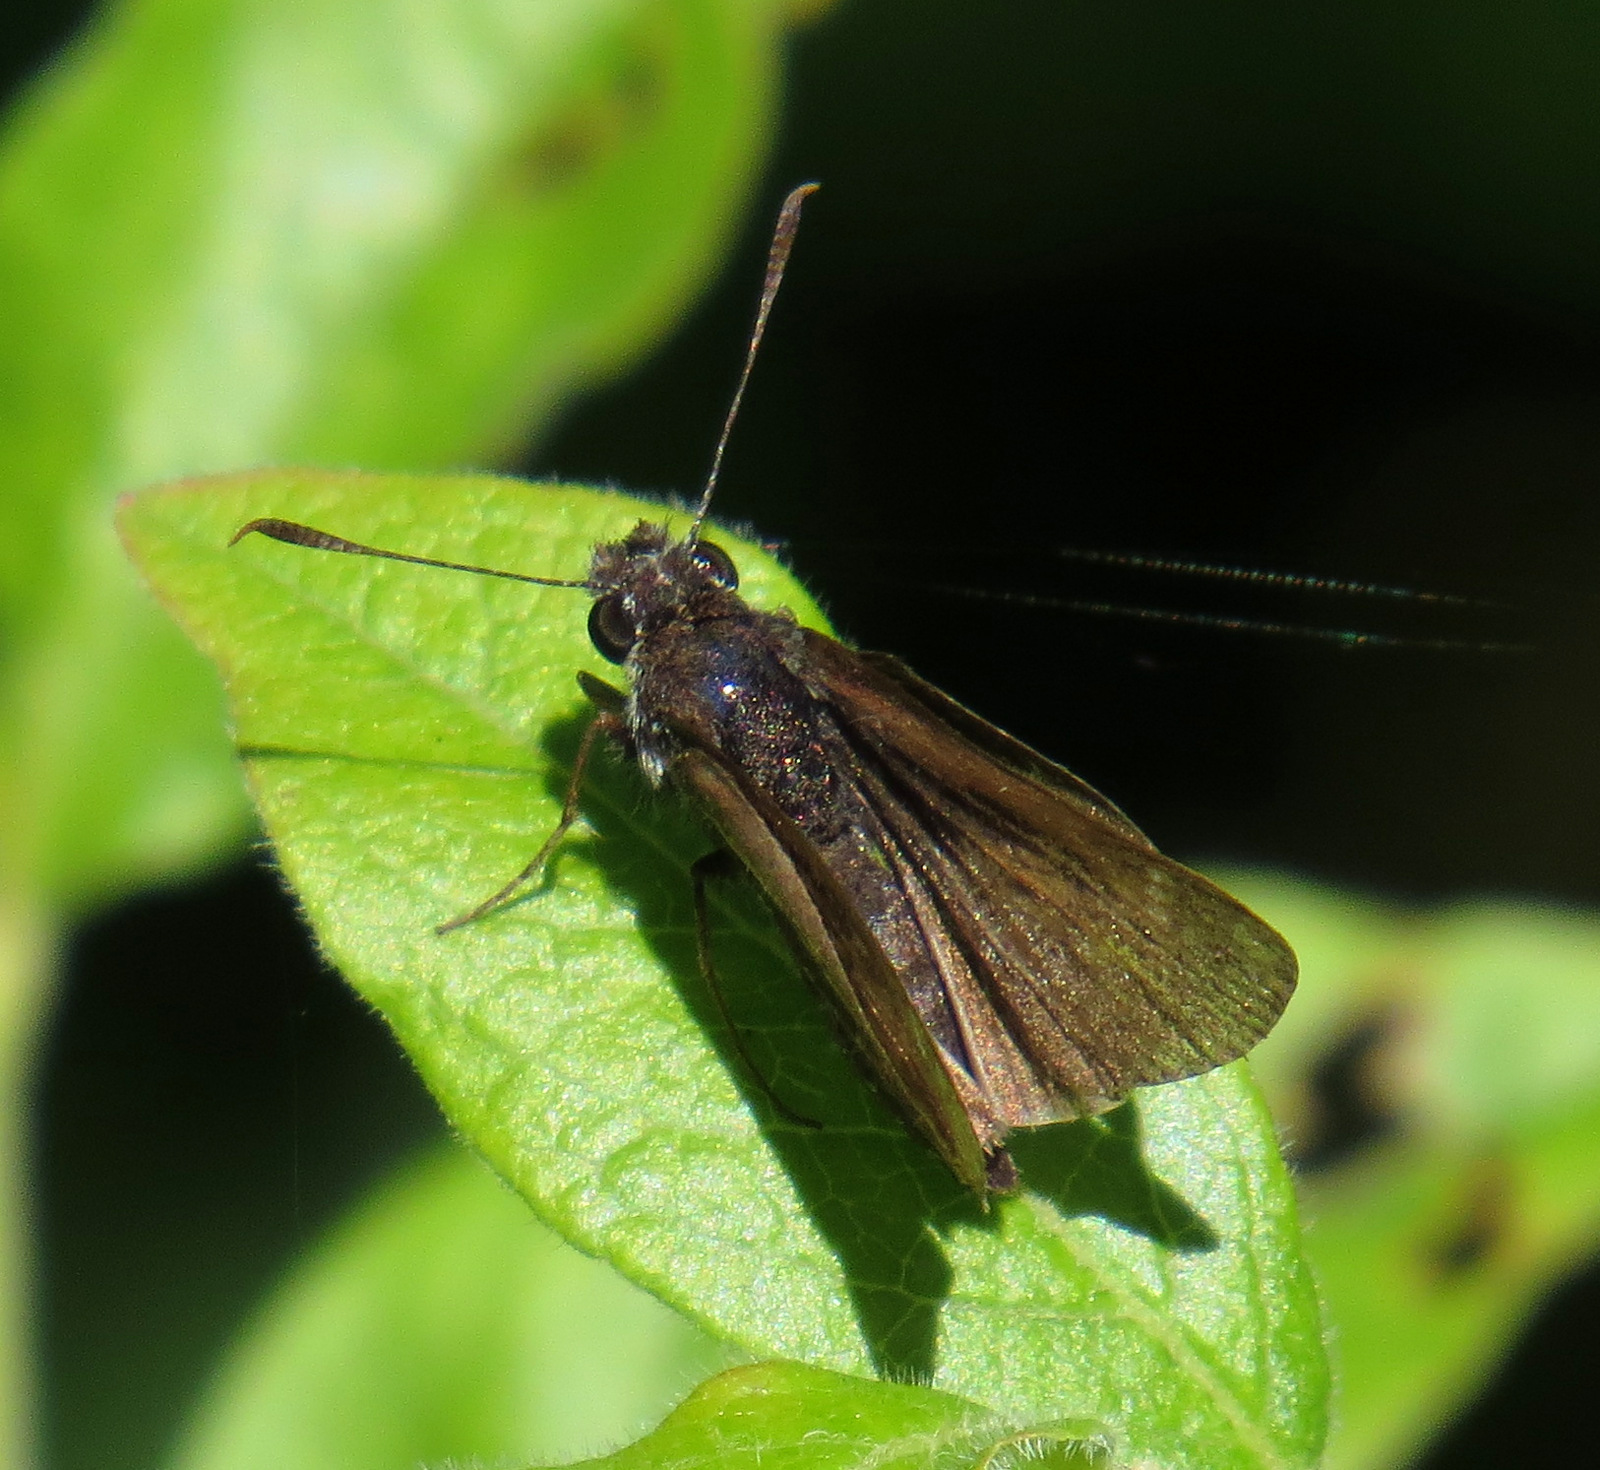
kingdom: Animalia
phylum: Arthropoda
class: Insecta
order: Lepidoptera
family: Hesperiidae
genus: Euphyes
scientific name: Euphyes vestris
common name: Dun skipper
